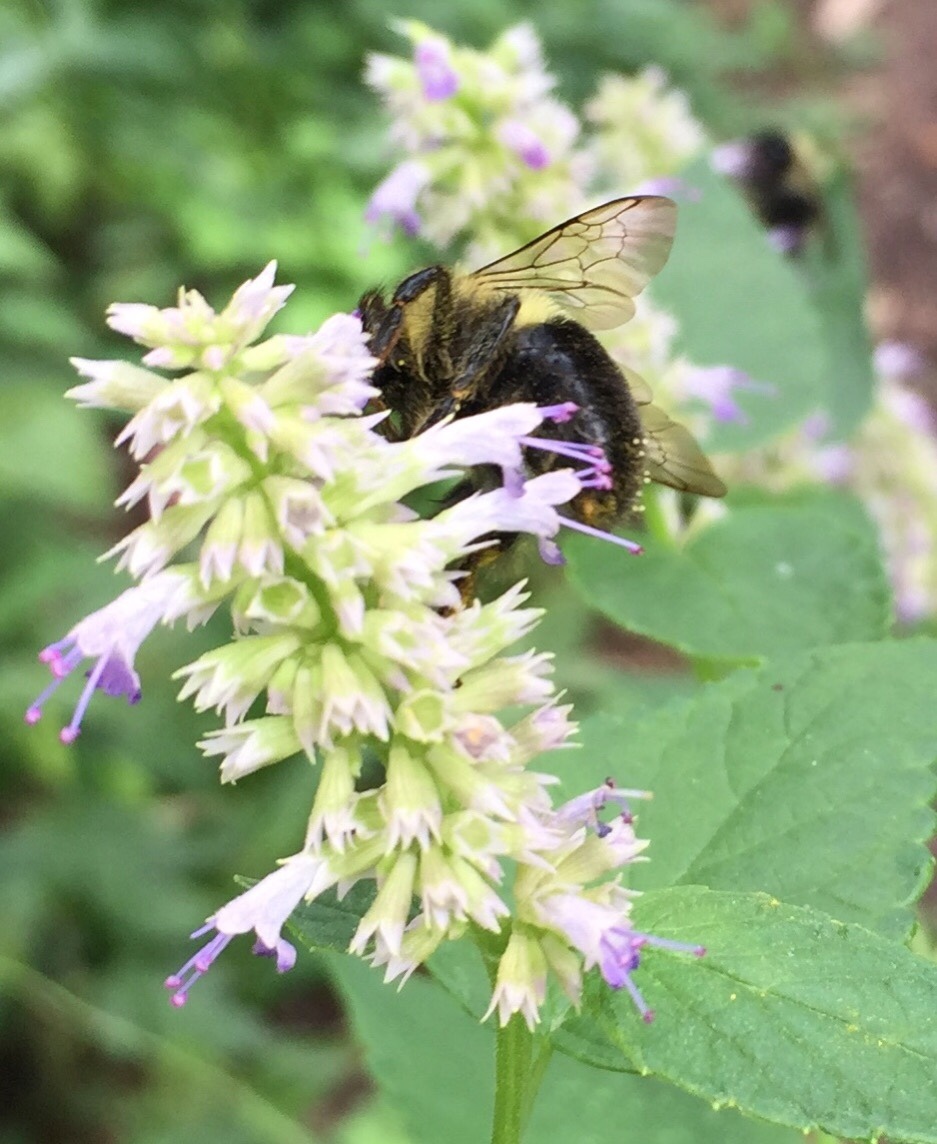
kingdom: Animalia
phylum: Arthropoda
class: Insecta
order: Hymenoptera
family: Apidae
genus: Bombus
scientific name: Bombus impatiens
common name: Common eastern bumble bee
